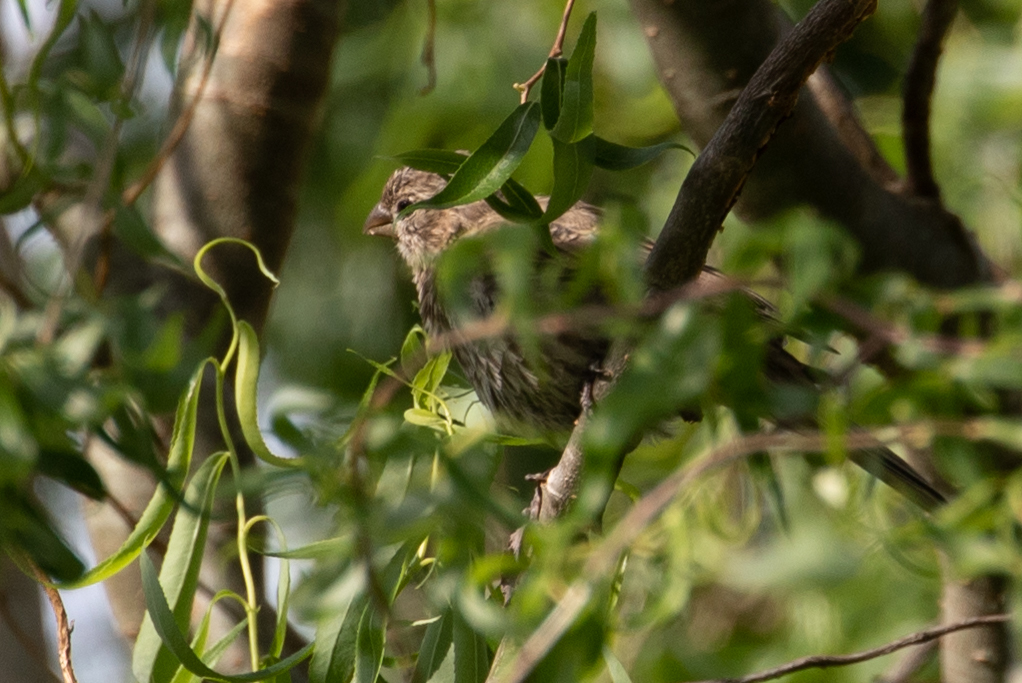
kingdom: Animalia
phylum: Chordata
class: Aves
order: Passeriformes
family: Fringillidae
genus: Haemorhous
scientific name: Haemorhous mexicanus
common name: House finch
